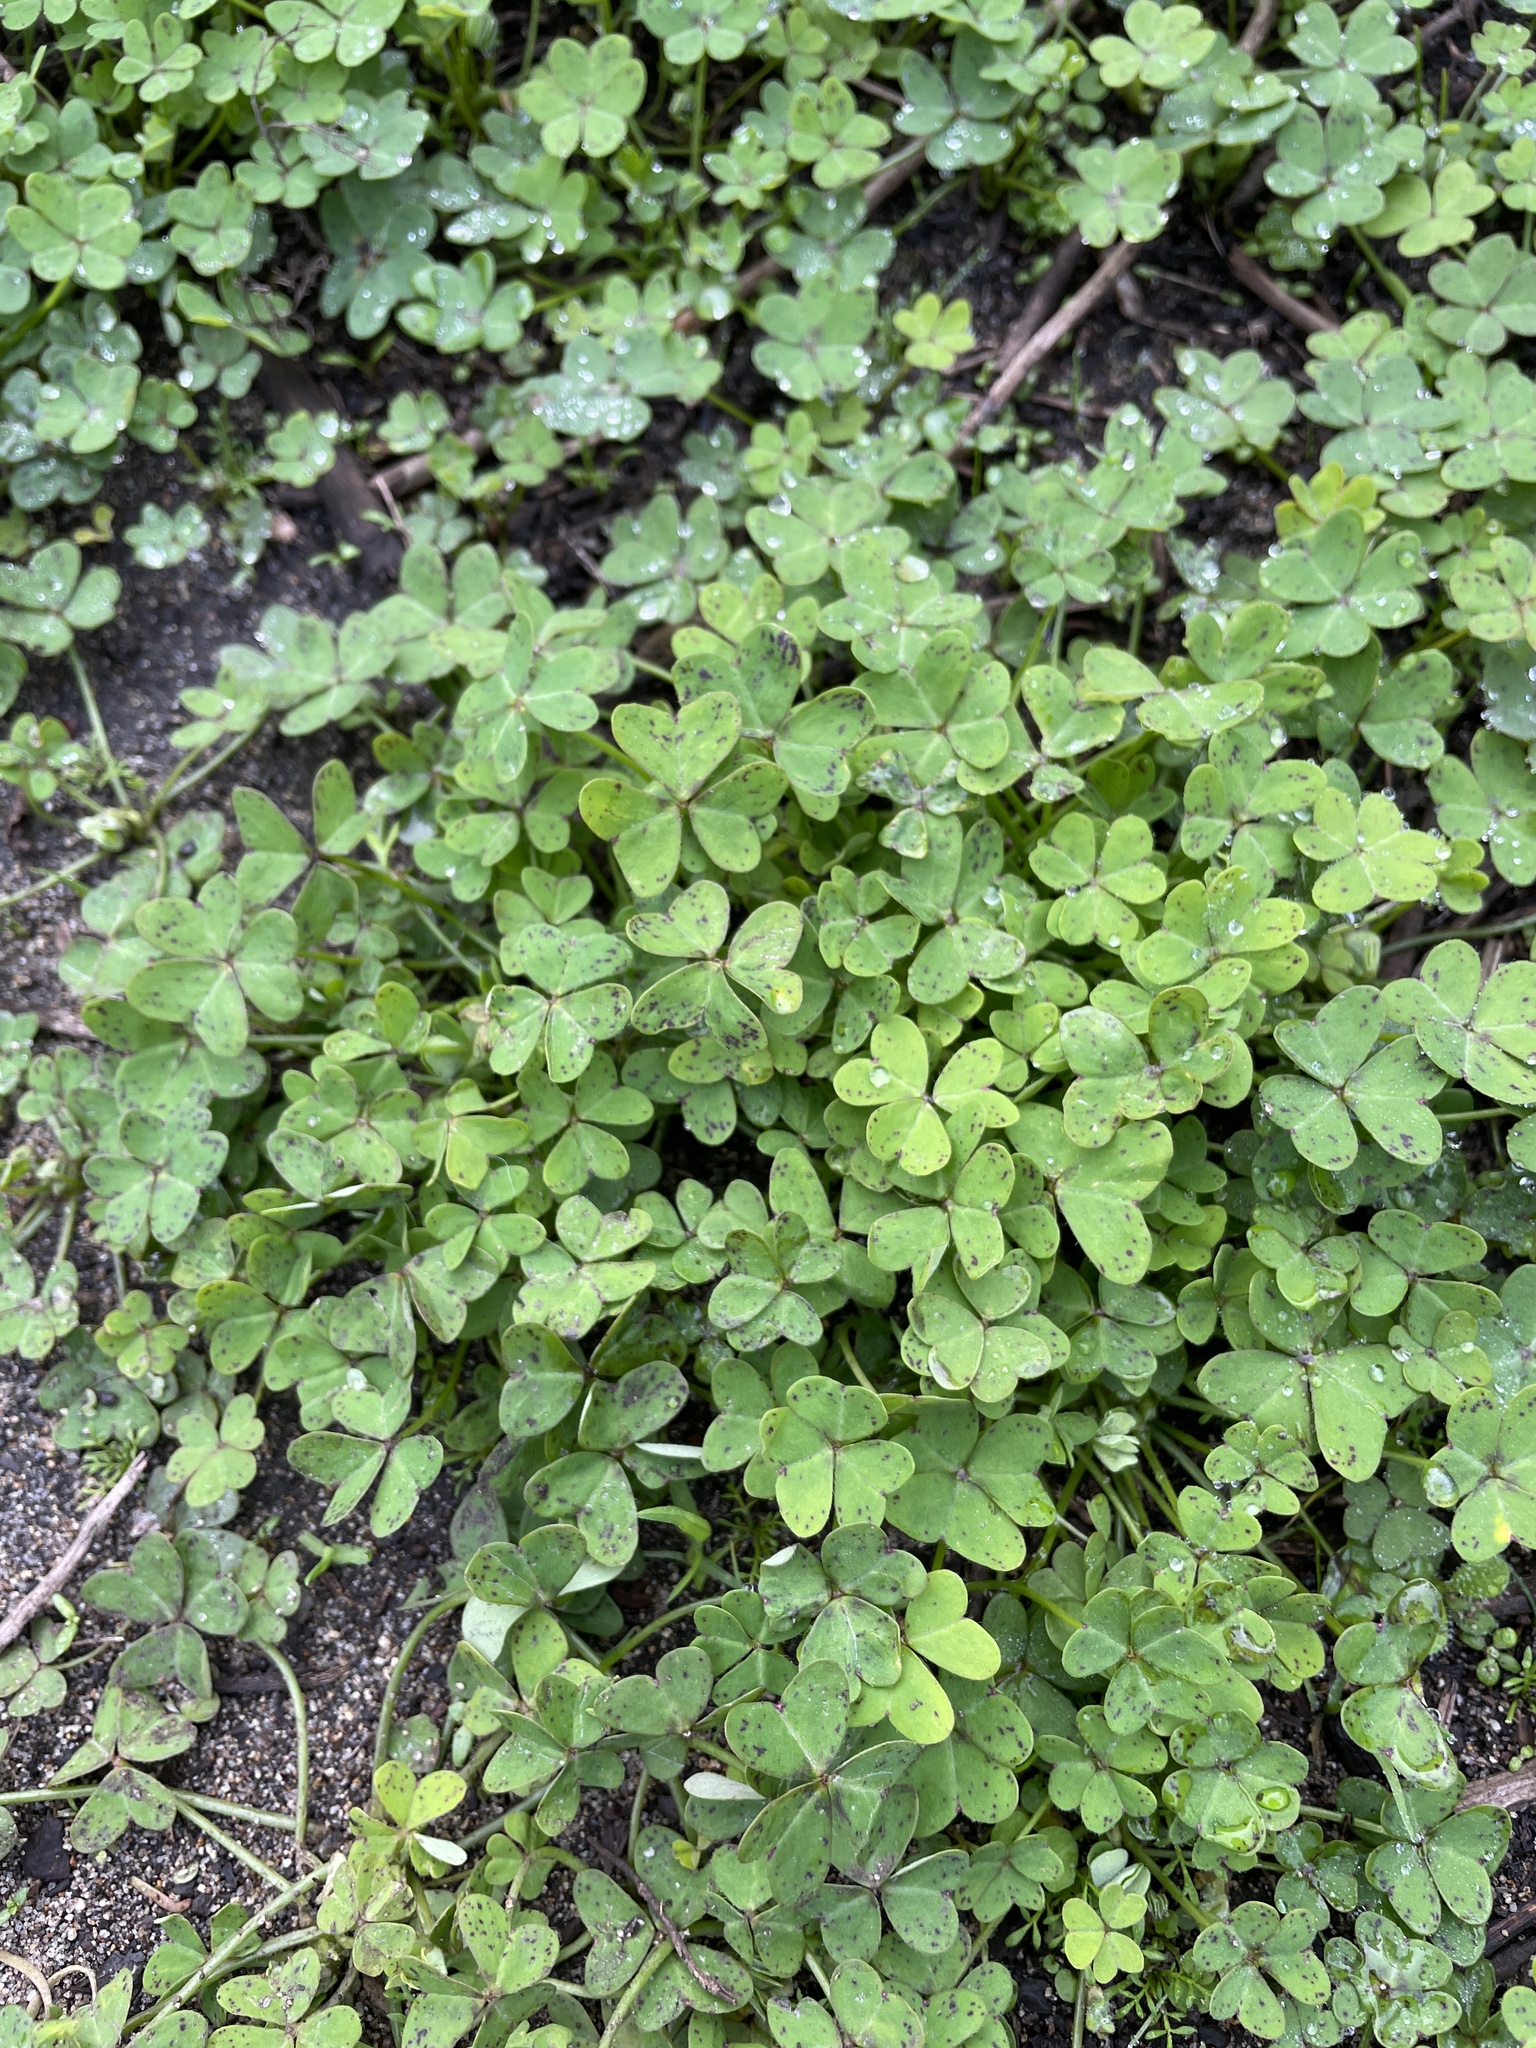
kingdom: Plantae
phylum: Tracheophyta
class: Magnoliopsida
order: Oxalidales
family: Oxalidaceae
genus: Oxalis
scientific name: Oxalis pes-caprae
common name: Bermuda-buttercup
